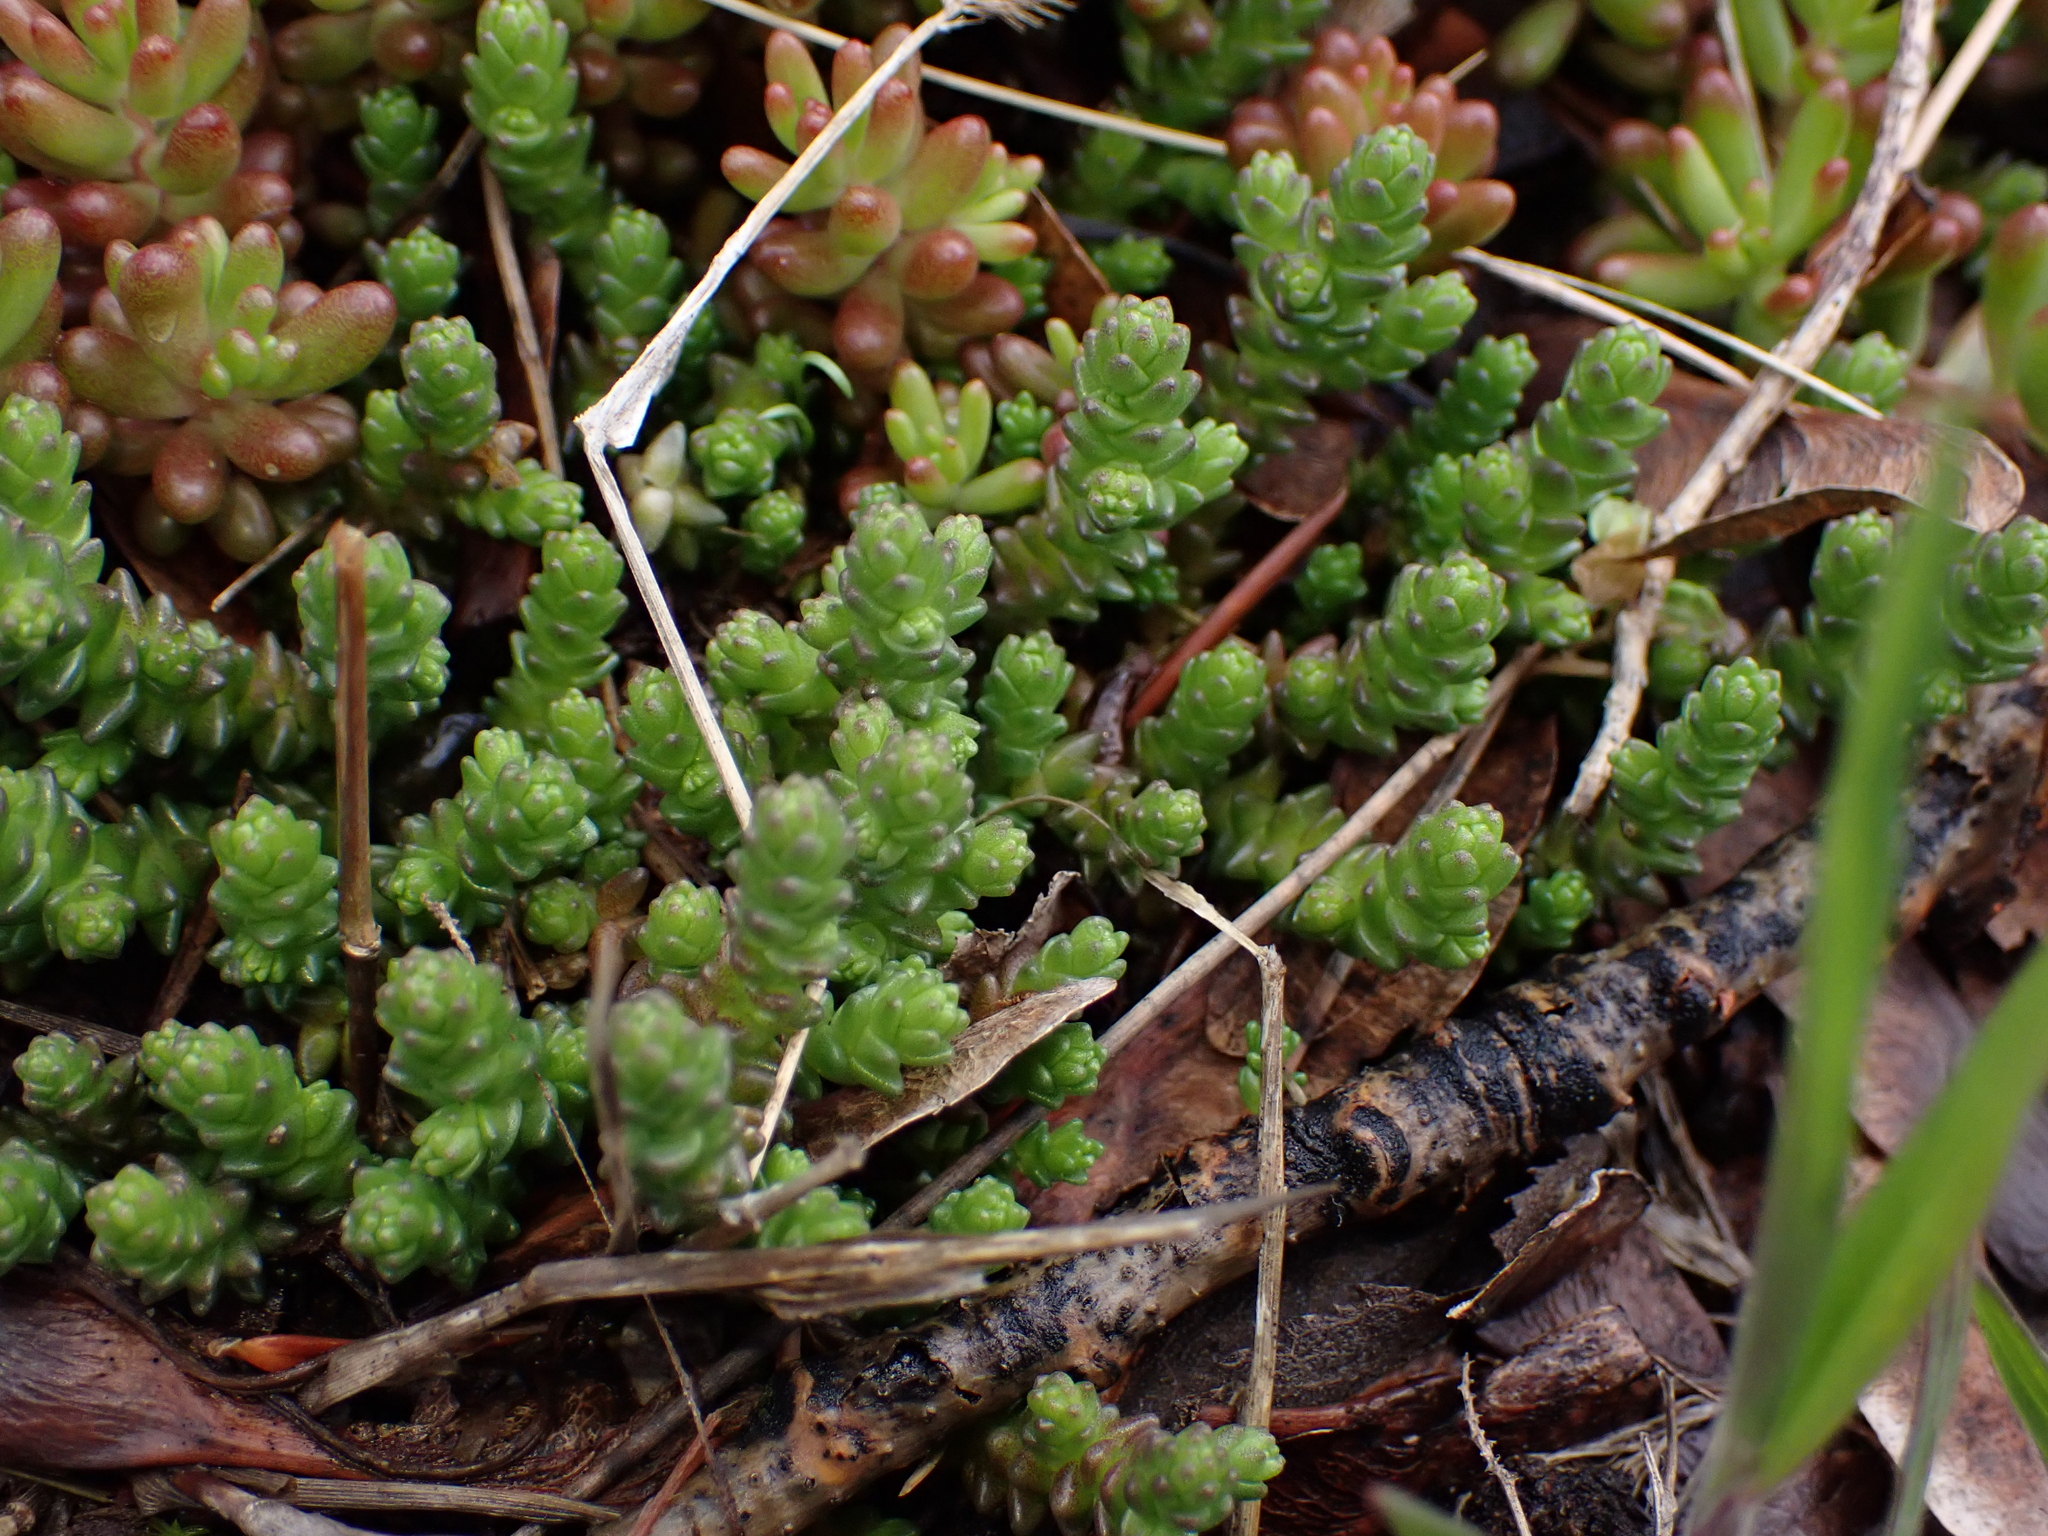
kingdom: Plantae
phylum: Tracheophyta
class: Magnoliopsida
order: Saxifragales
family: Crassulaceae
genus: Sedum
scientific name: Sedum acre
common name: Biting stonecrop
